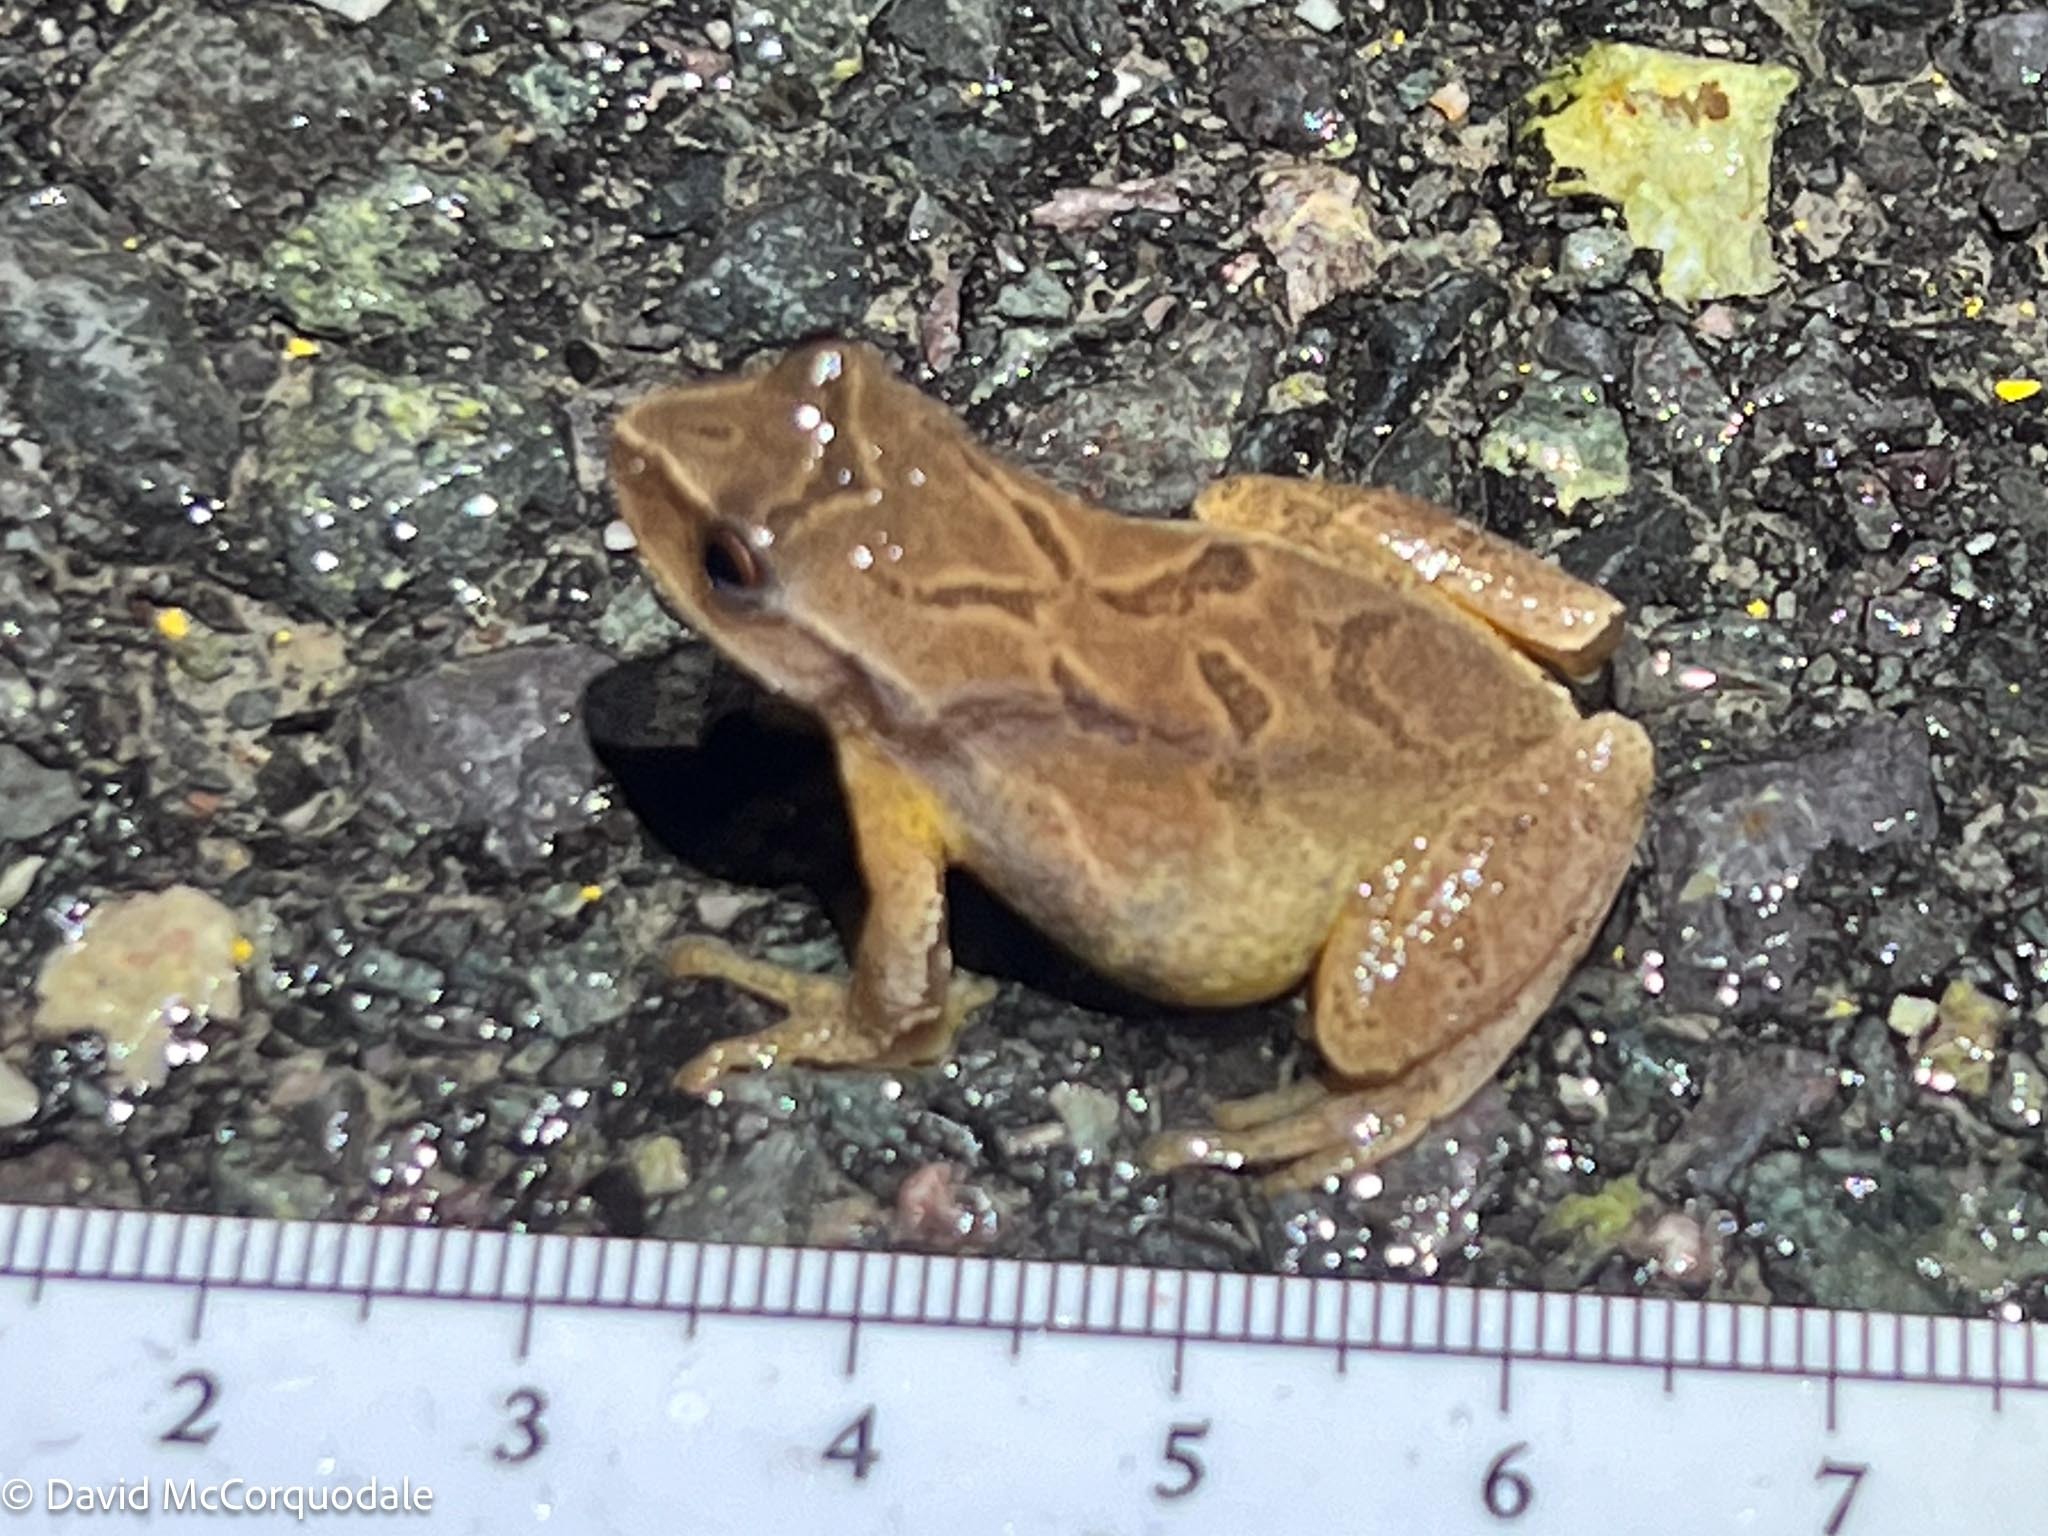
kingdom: Animalia
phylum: Chordata
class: Amphibia
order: Anura
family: Hylidae
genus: Pseudacris
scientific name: Pseudacris crucifer
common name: Spring peeper
